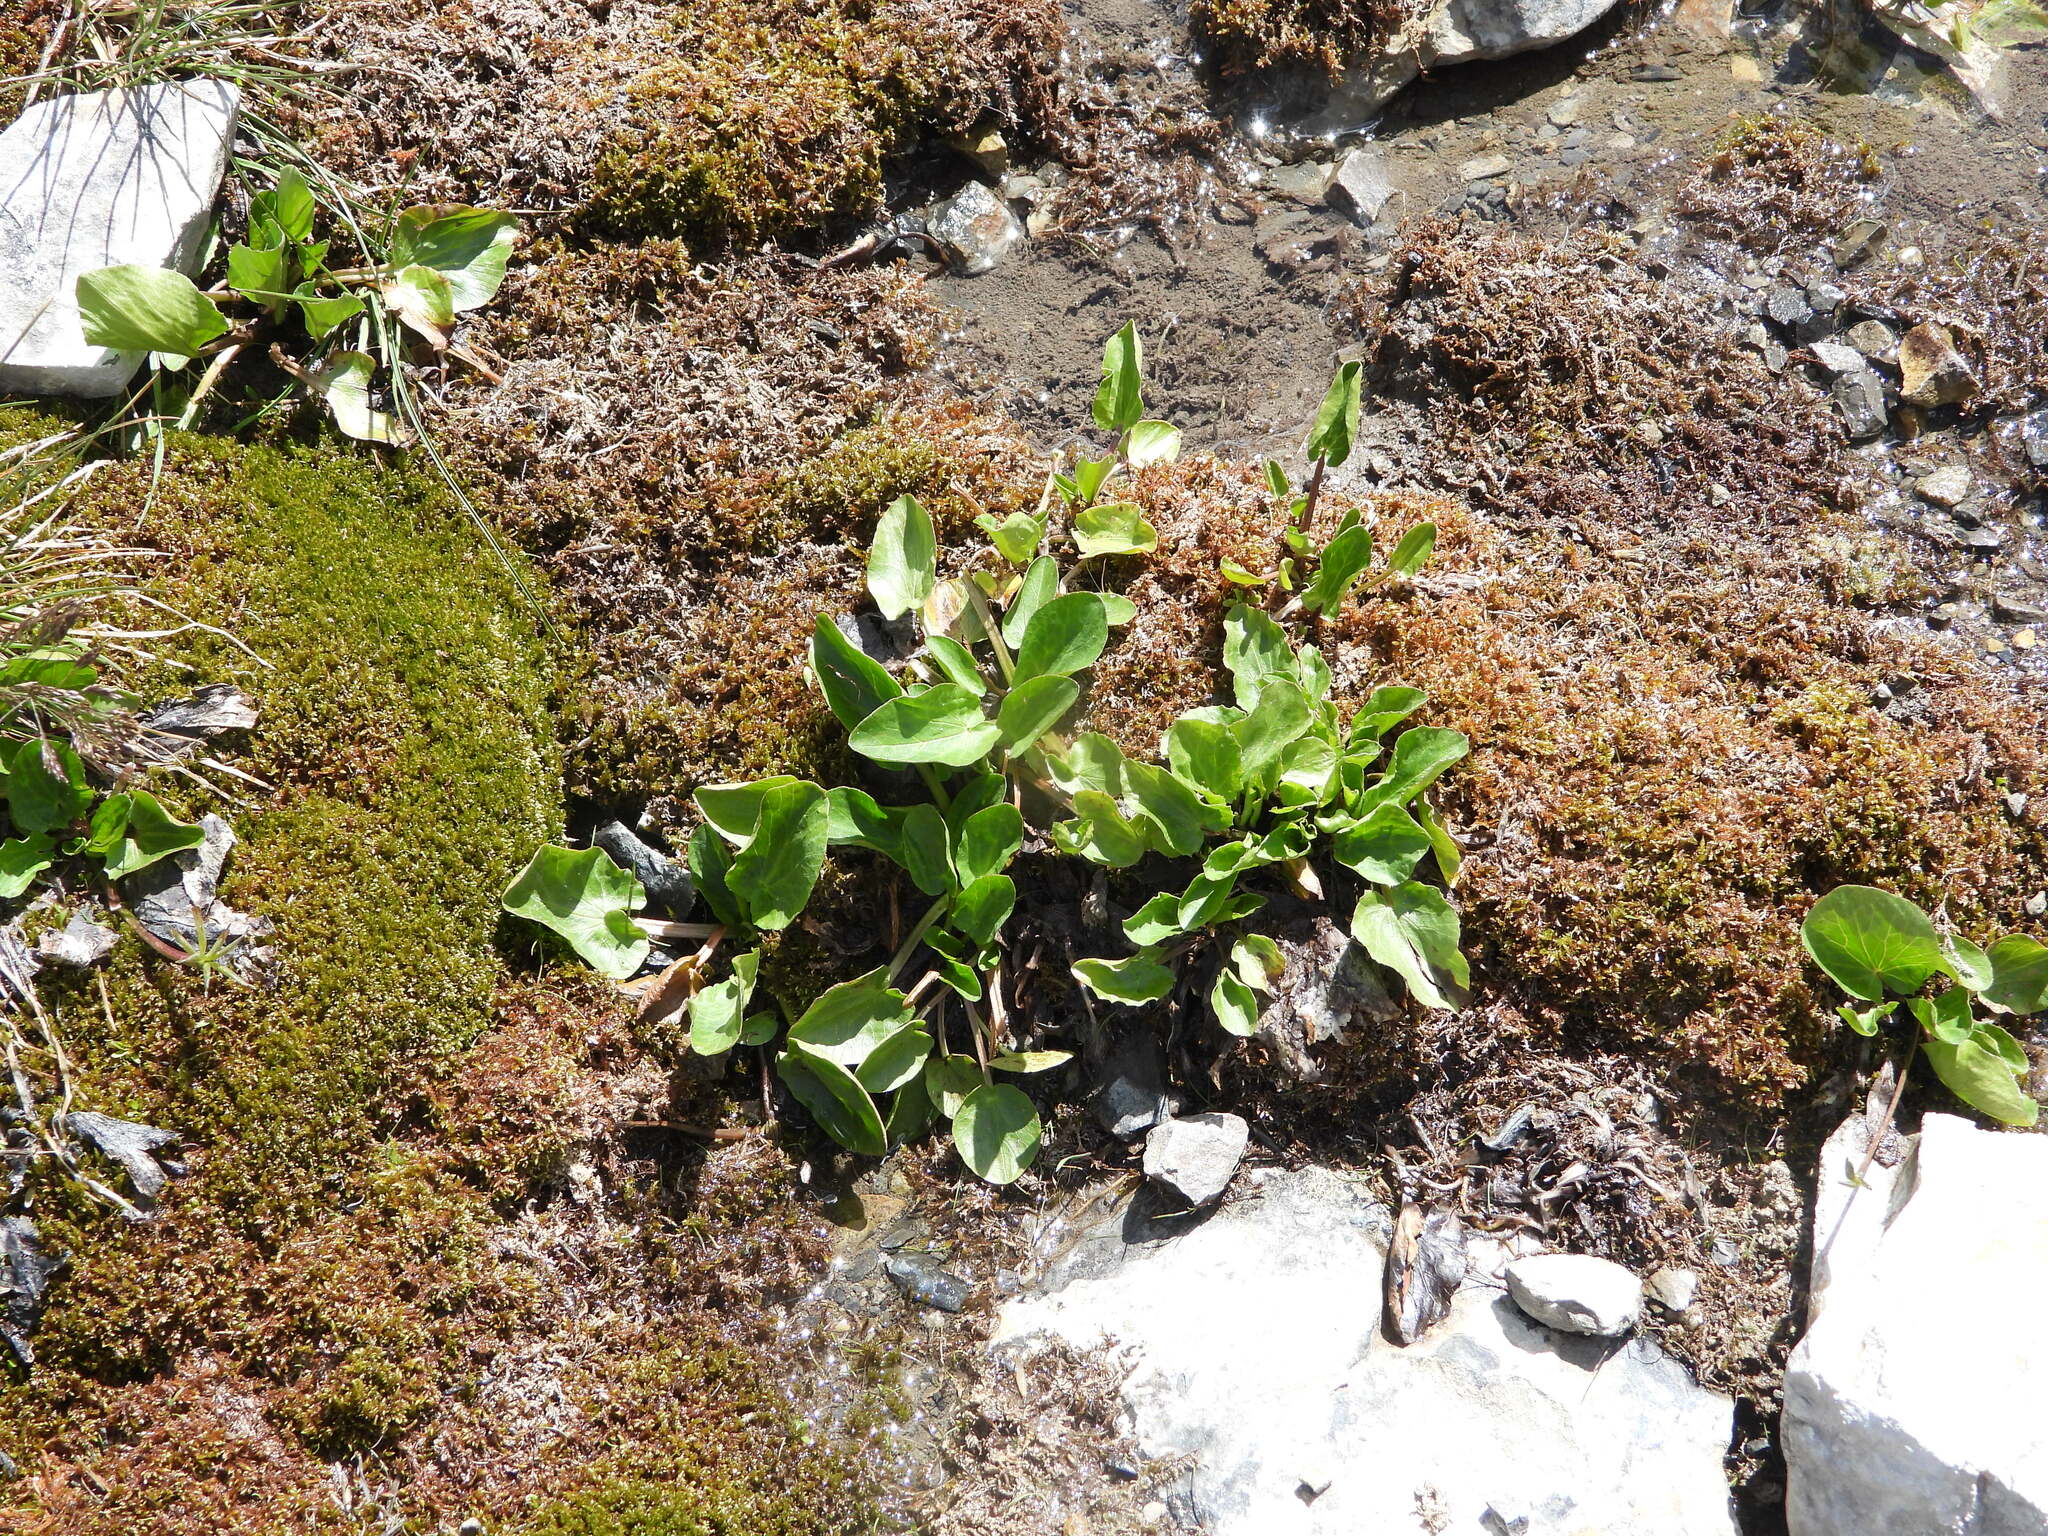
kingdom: Plantae
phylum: Tracheophyta
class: Magnoliopsida
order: Ranunculales
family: Ranunculaceae
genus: Caltha
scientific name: Caltha leptosepala
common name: Elkslip
